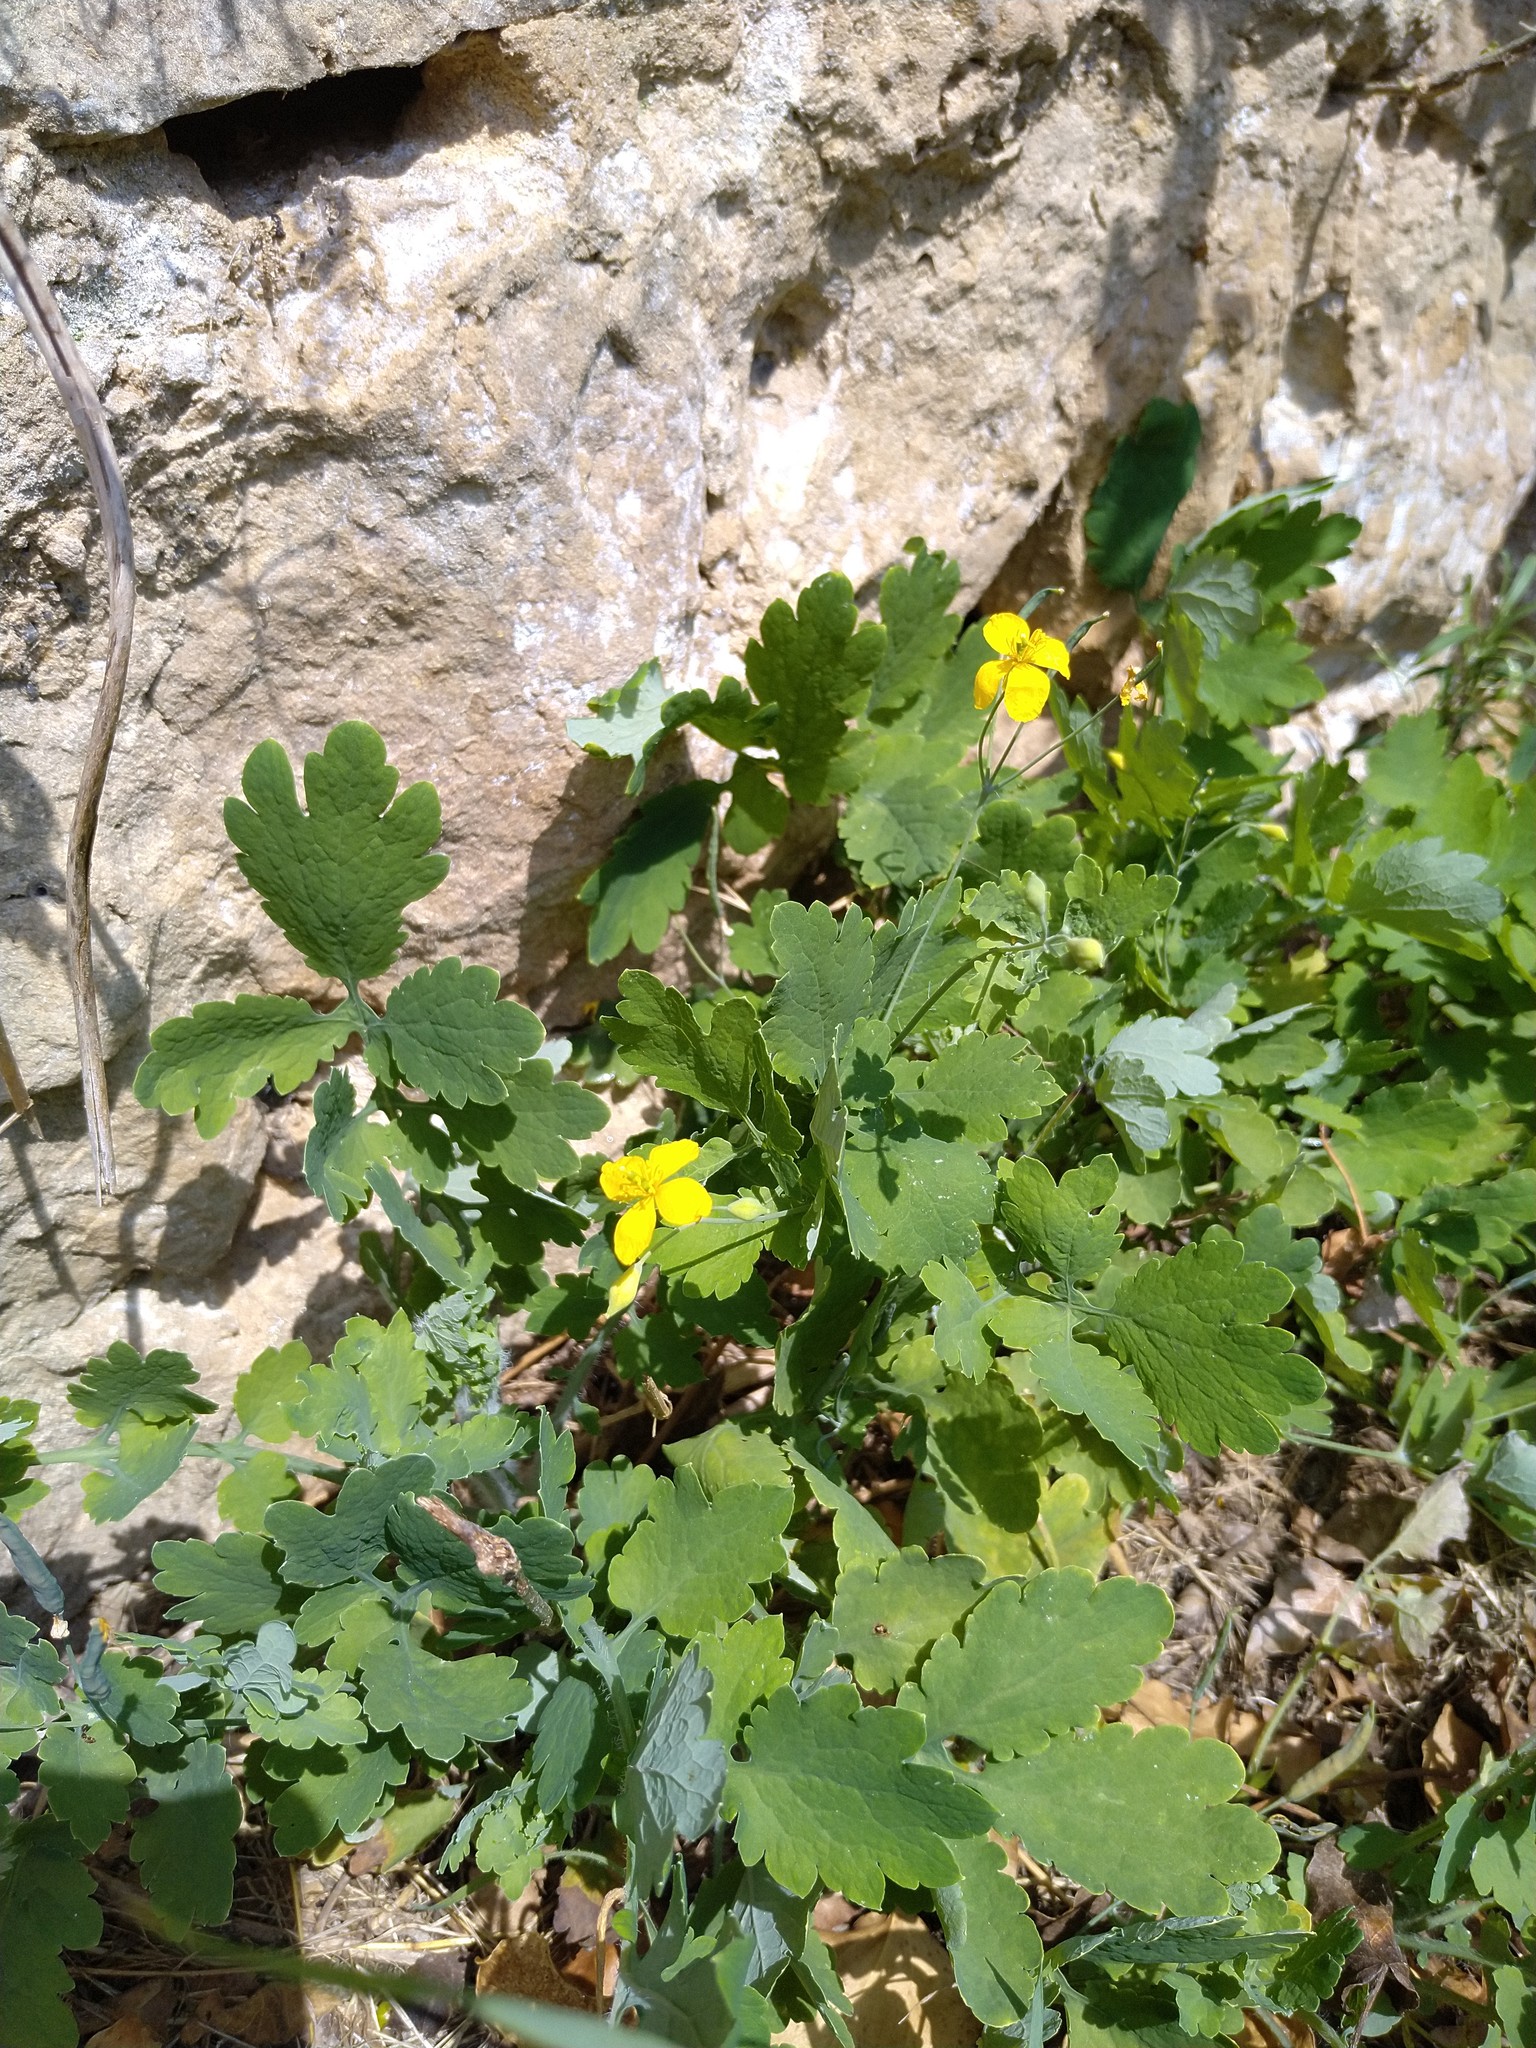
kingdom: Plantae
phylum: Tracheophyta
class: Magnoliopsida
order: Ranunculales
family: Papaveraceae
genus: Chelidonium
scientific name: Chelidonium majus
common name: Greater celandine
